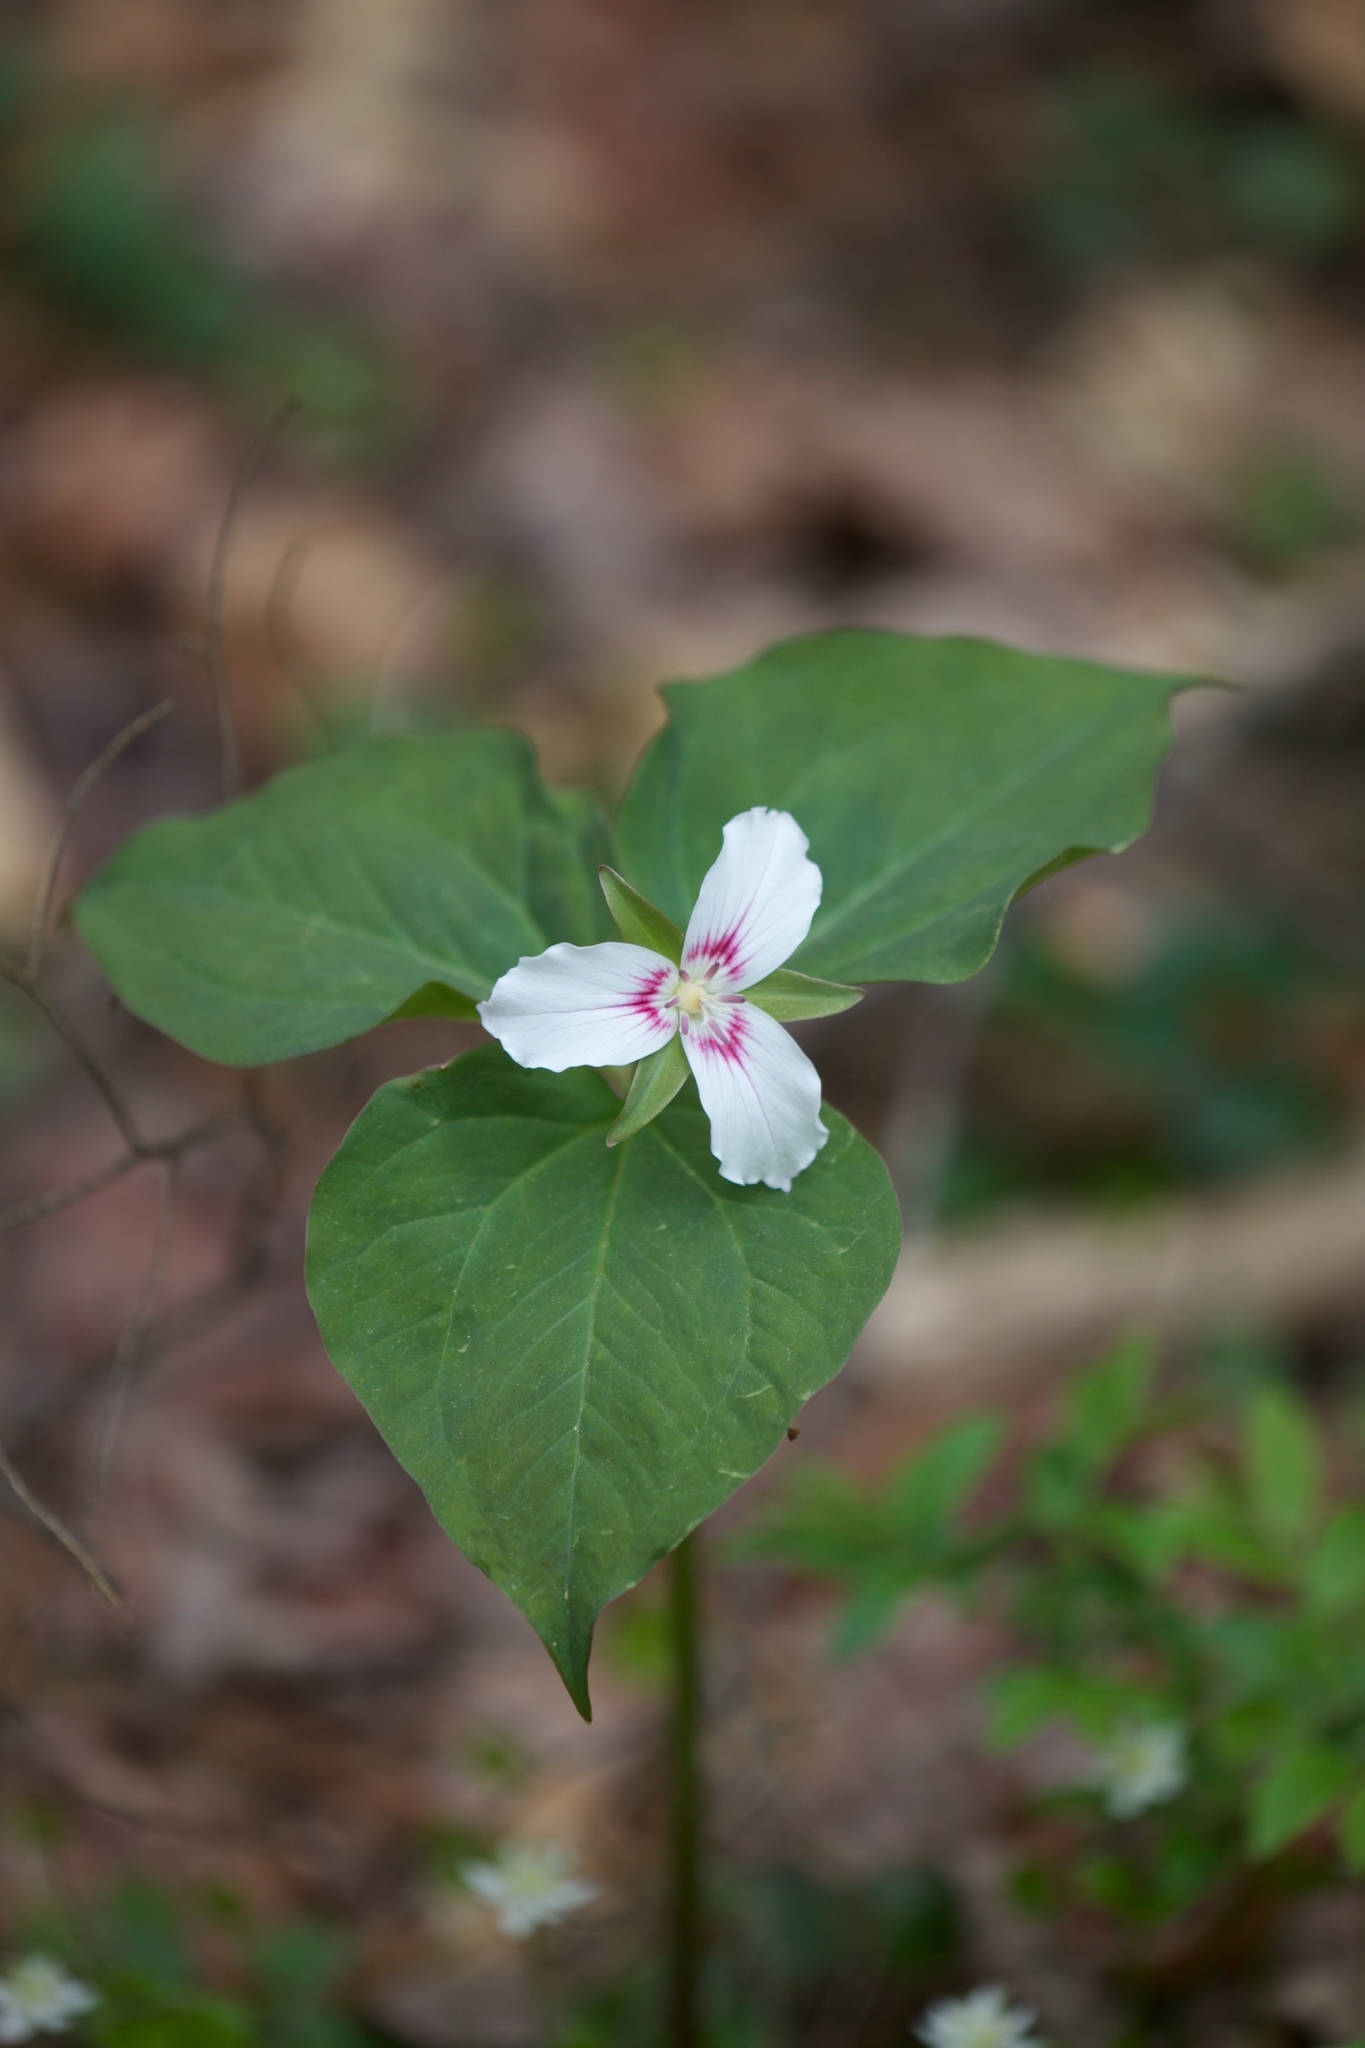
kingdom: Plantae
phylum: Tracheophyta
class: Liliopsida
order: Liliales
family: Melanthiaceae
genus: Trillium
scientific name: Trillium undulatum
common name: Paint trillium
